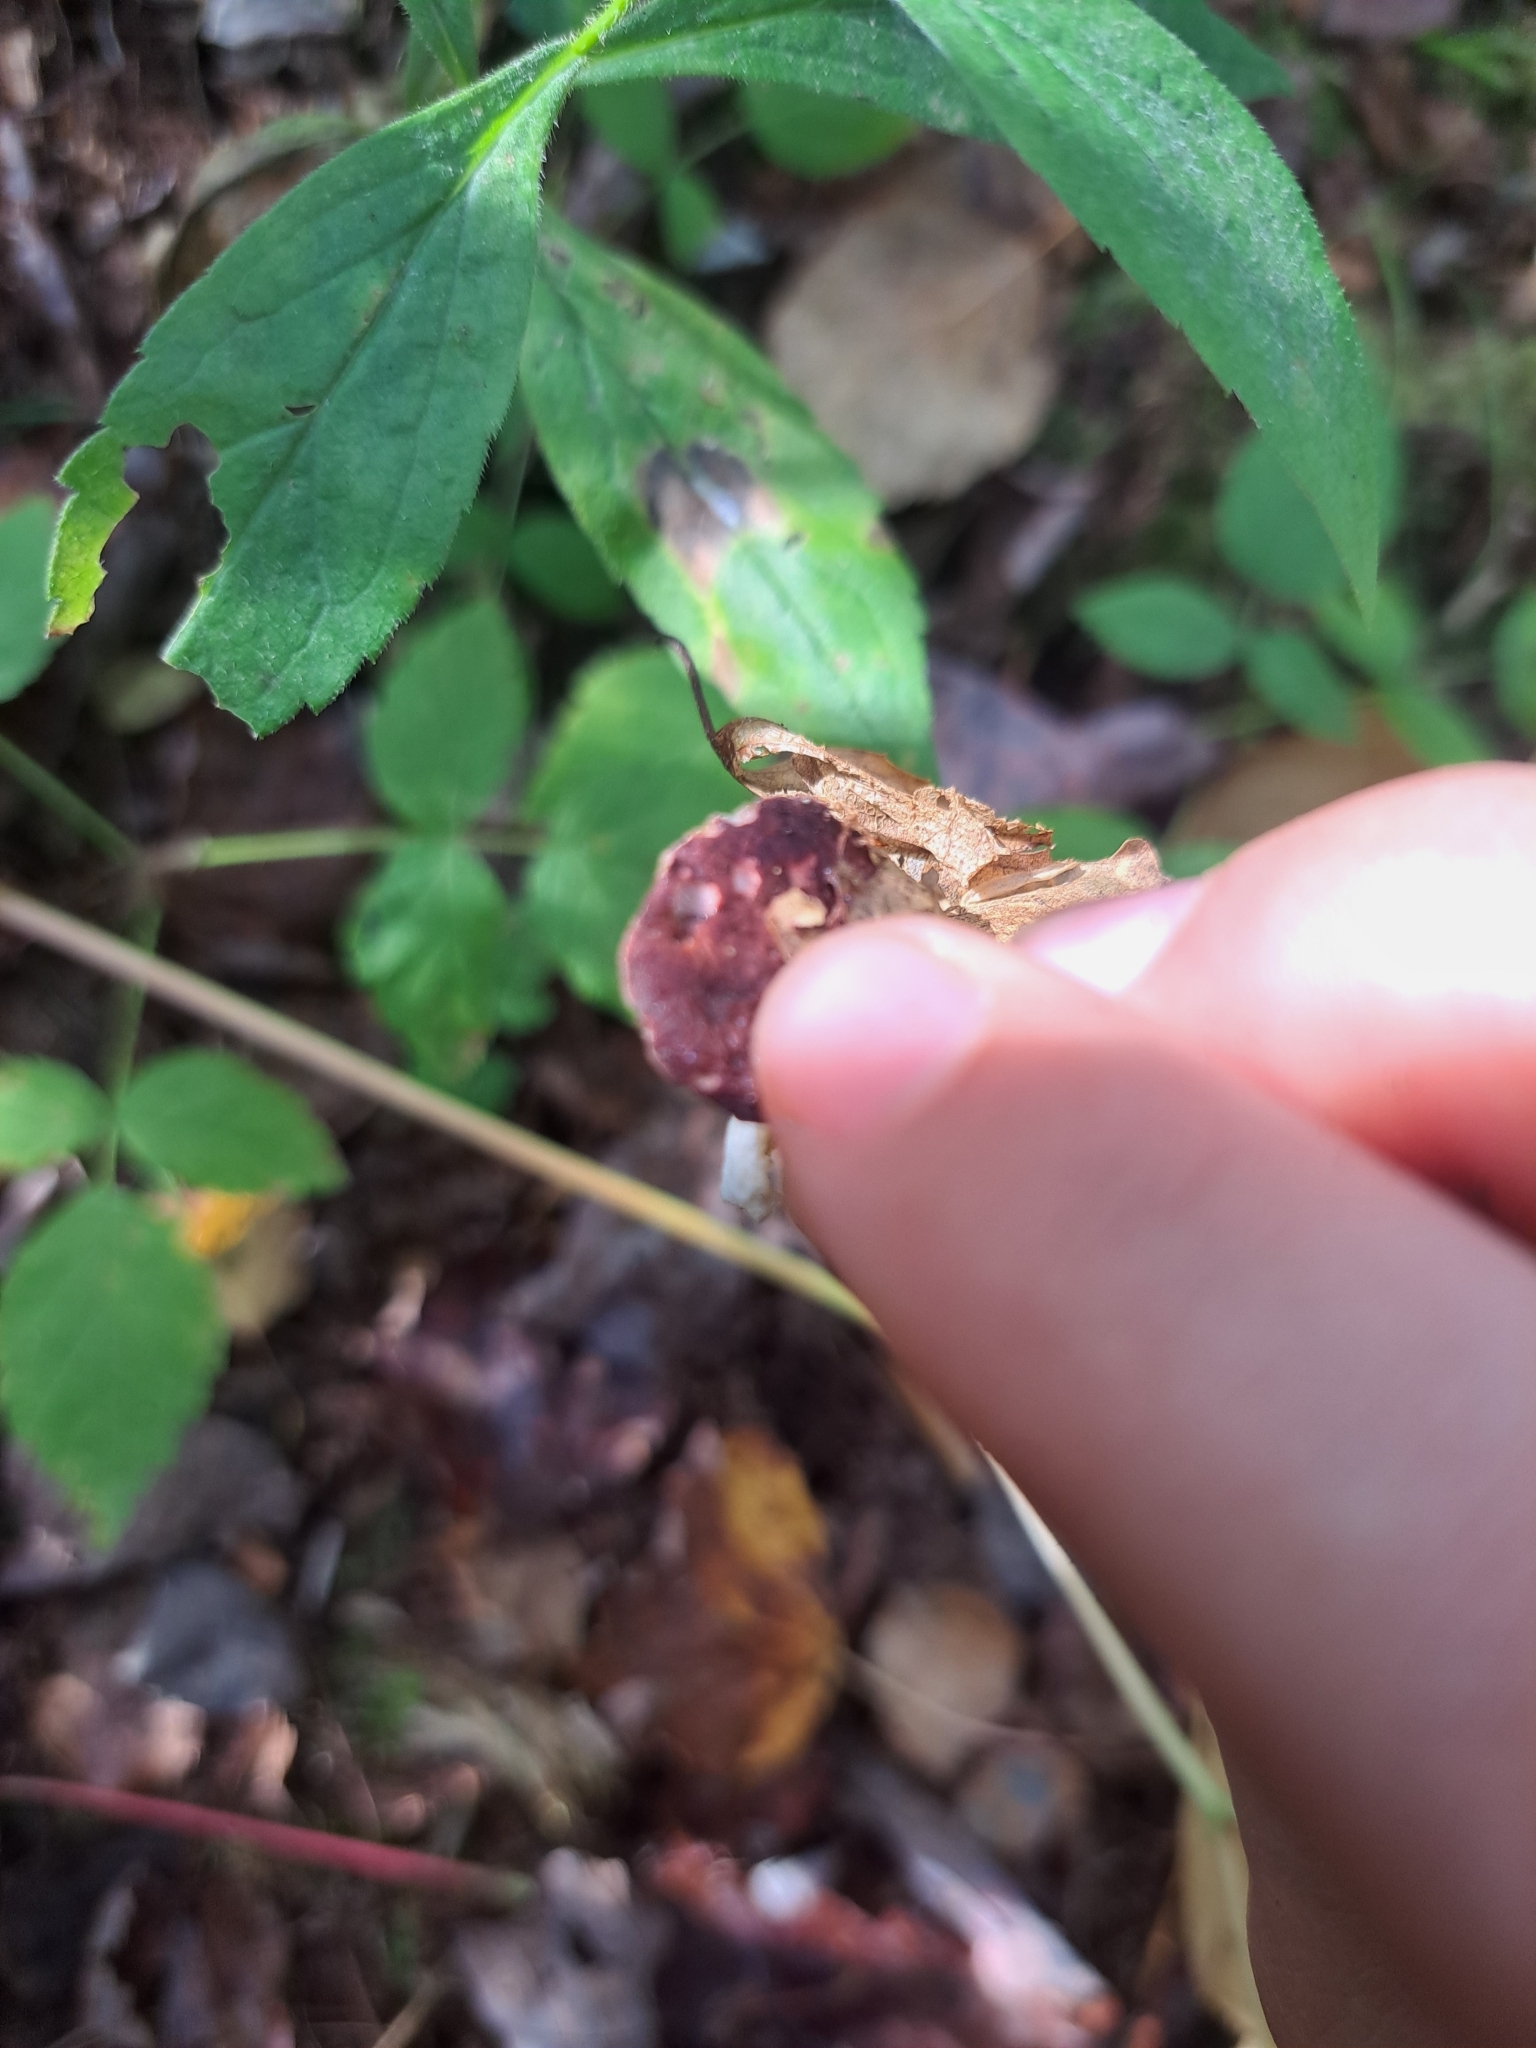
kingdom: Fungi
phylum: Ascomycota
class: Sordariomycetes
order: Hypocreales
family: Hypocreaceae
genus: Hypomyces
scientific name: Hypomyces luteovirens
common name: Yellow-green russula mold
